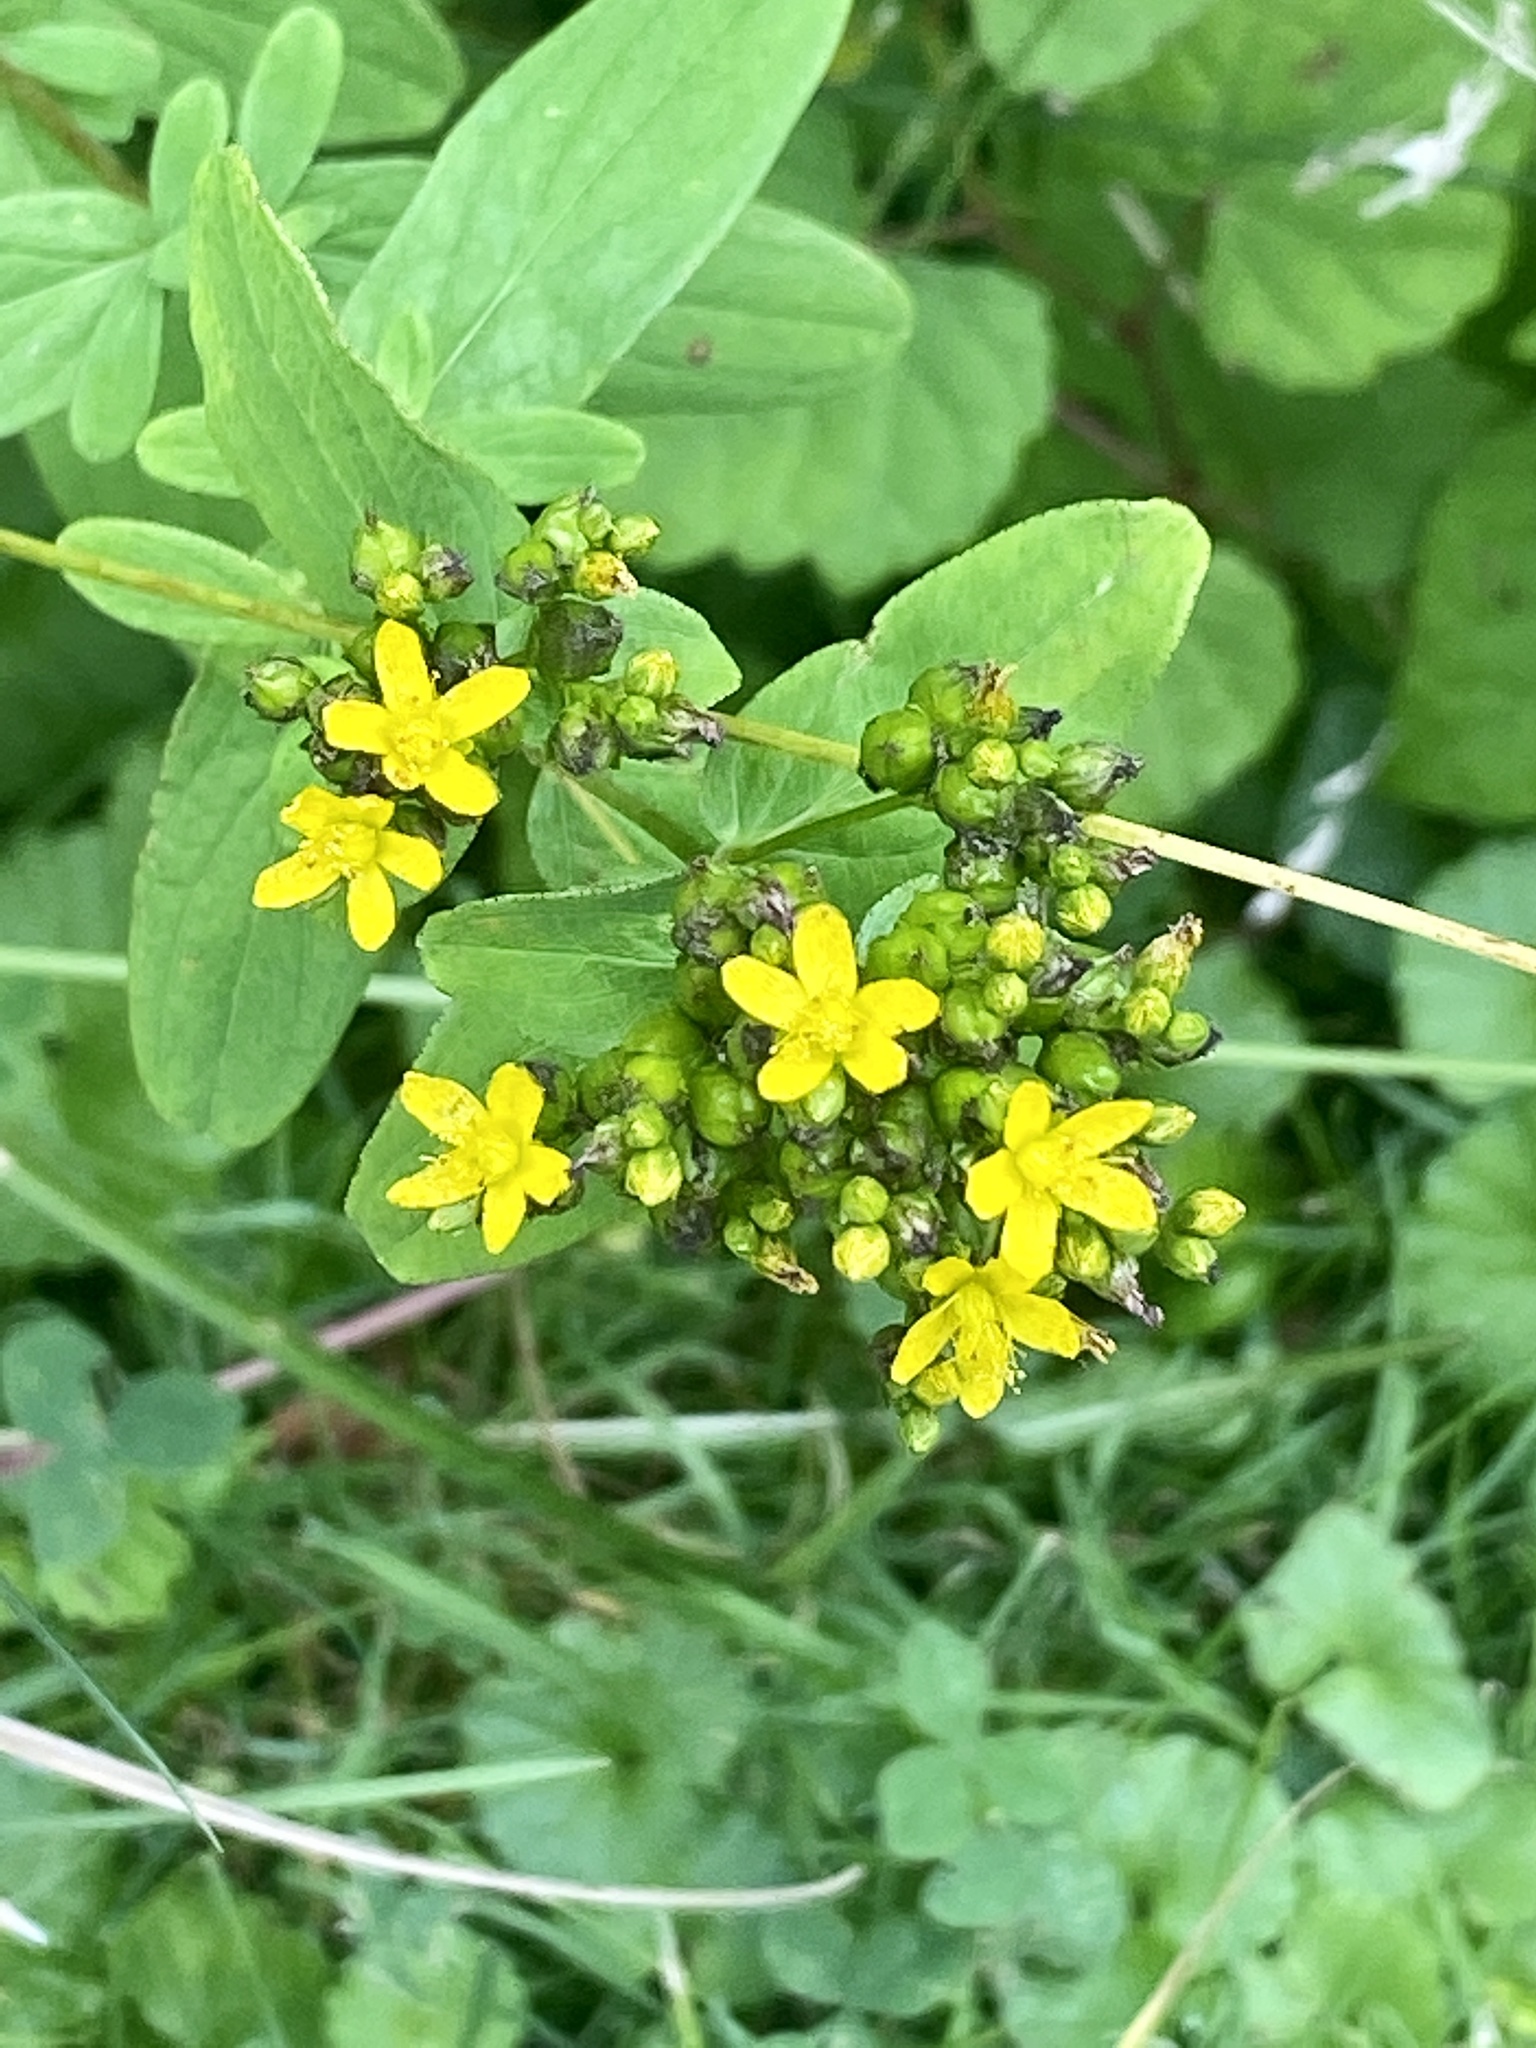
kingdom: Plantae
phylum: Tracheophyta
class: Magnoliopsida
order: Malpighiales
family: Hypericaceae
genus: Hypericum
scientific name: Hypericum punctatum
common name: Spotted st. john's-wort
